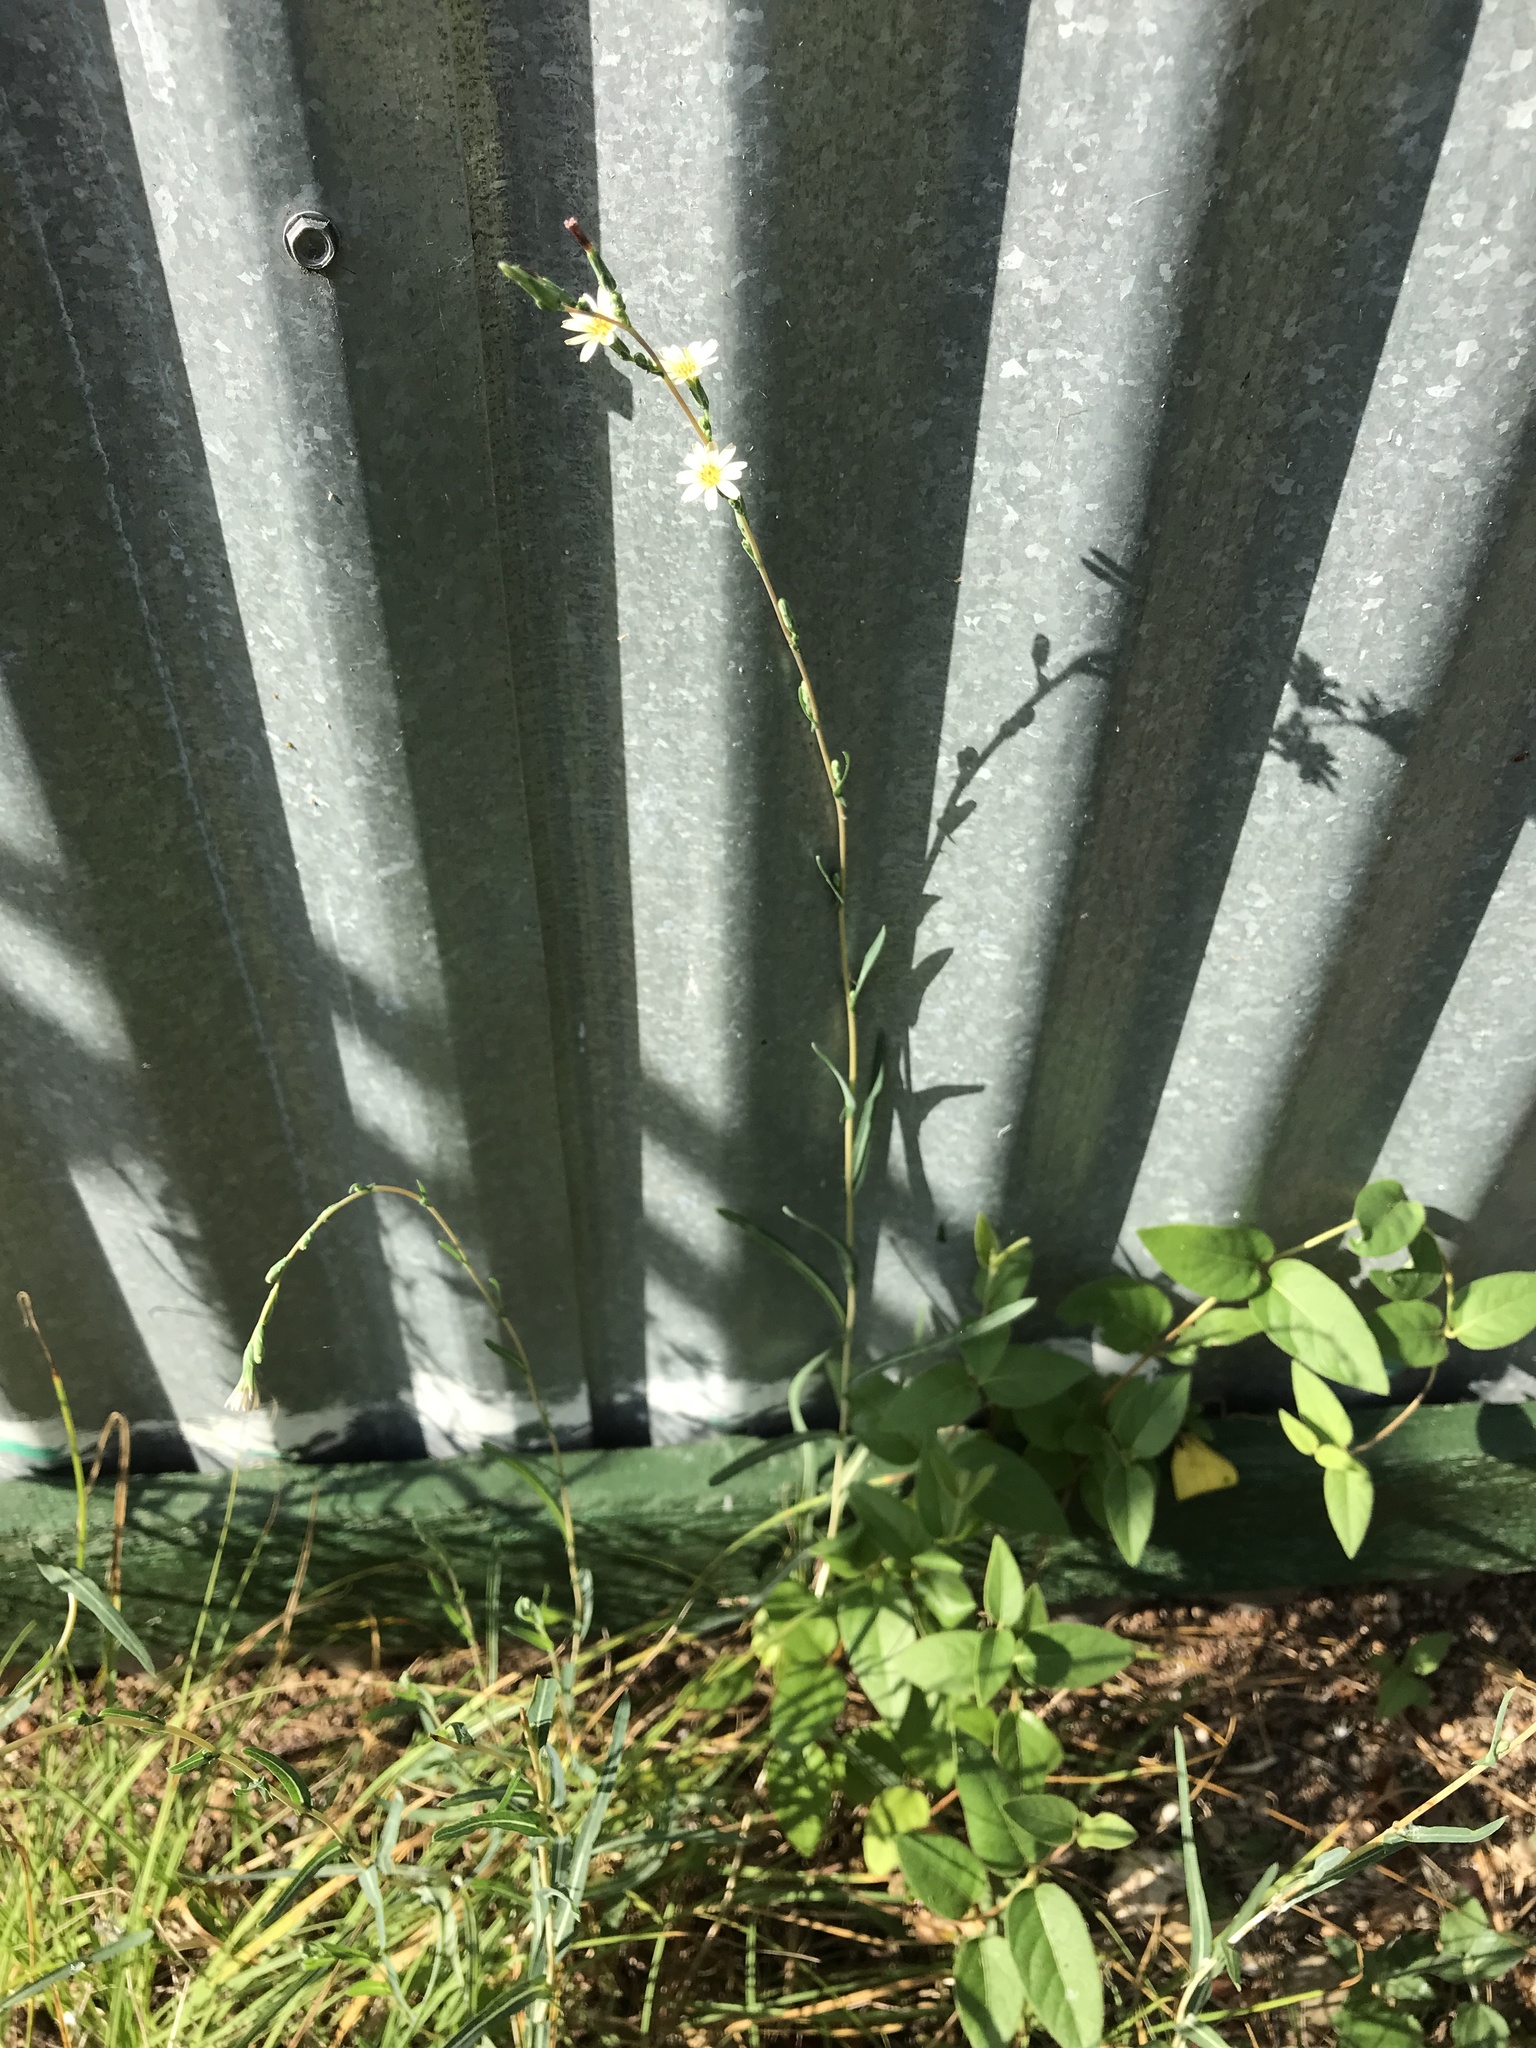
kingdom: Plantae
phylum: Tracheophyta
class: Magnoliopsida
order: Asterales
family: Asteraceae
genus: Lactuca
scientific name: Lactuca saligna
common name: Wild lettuce
